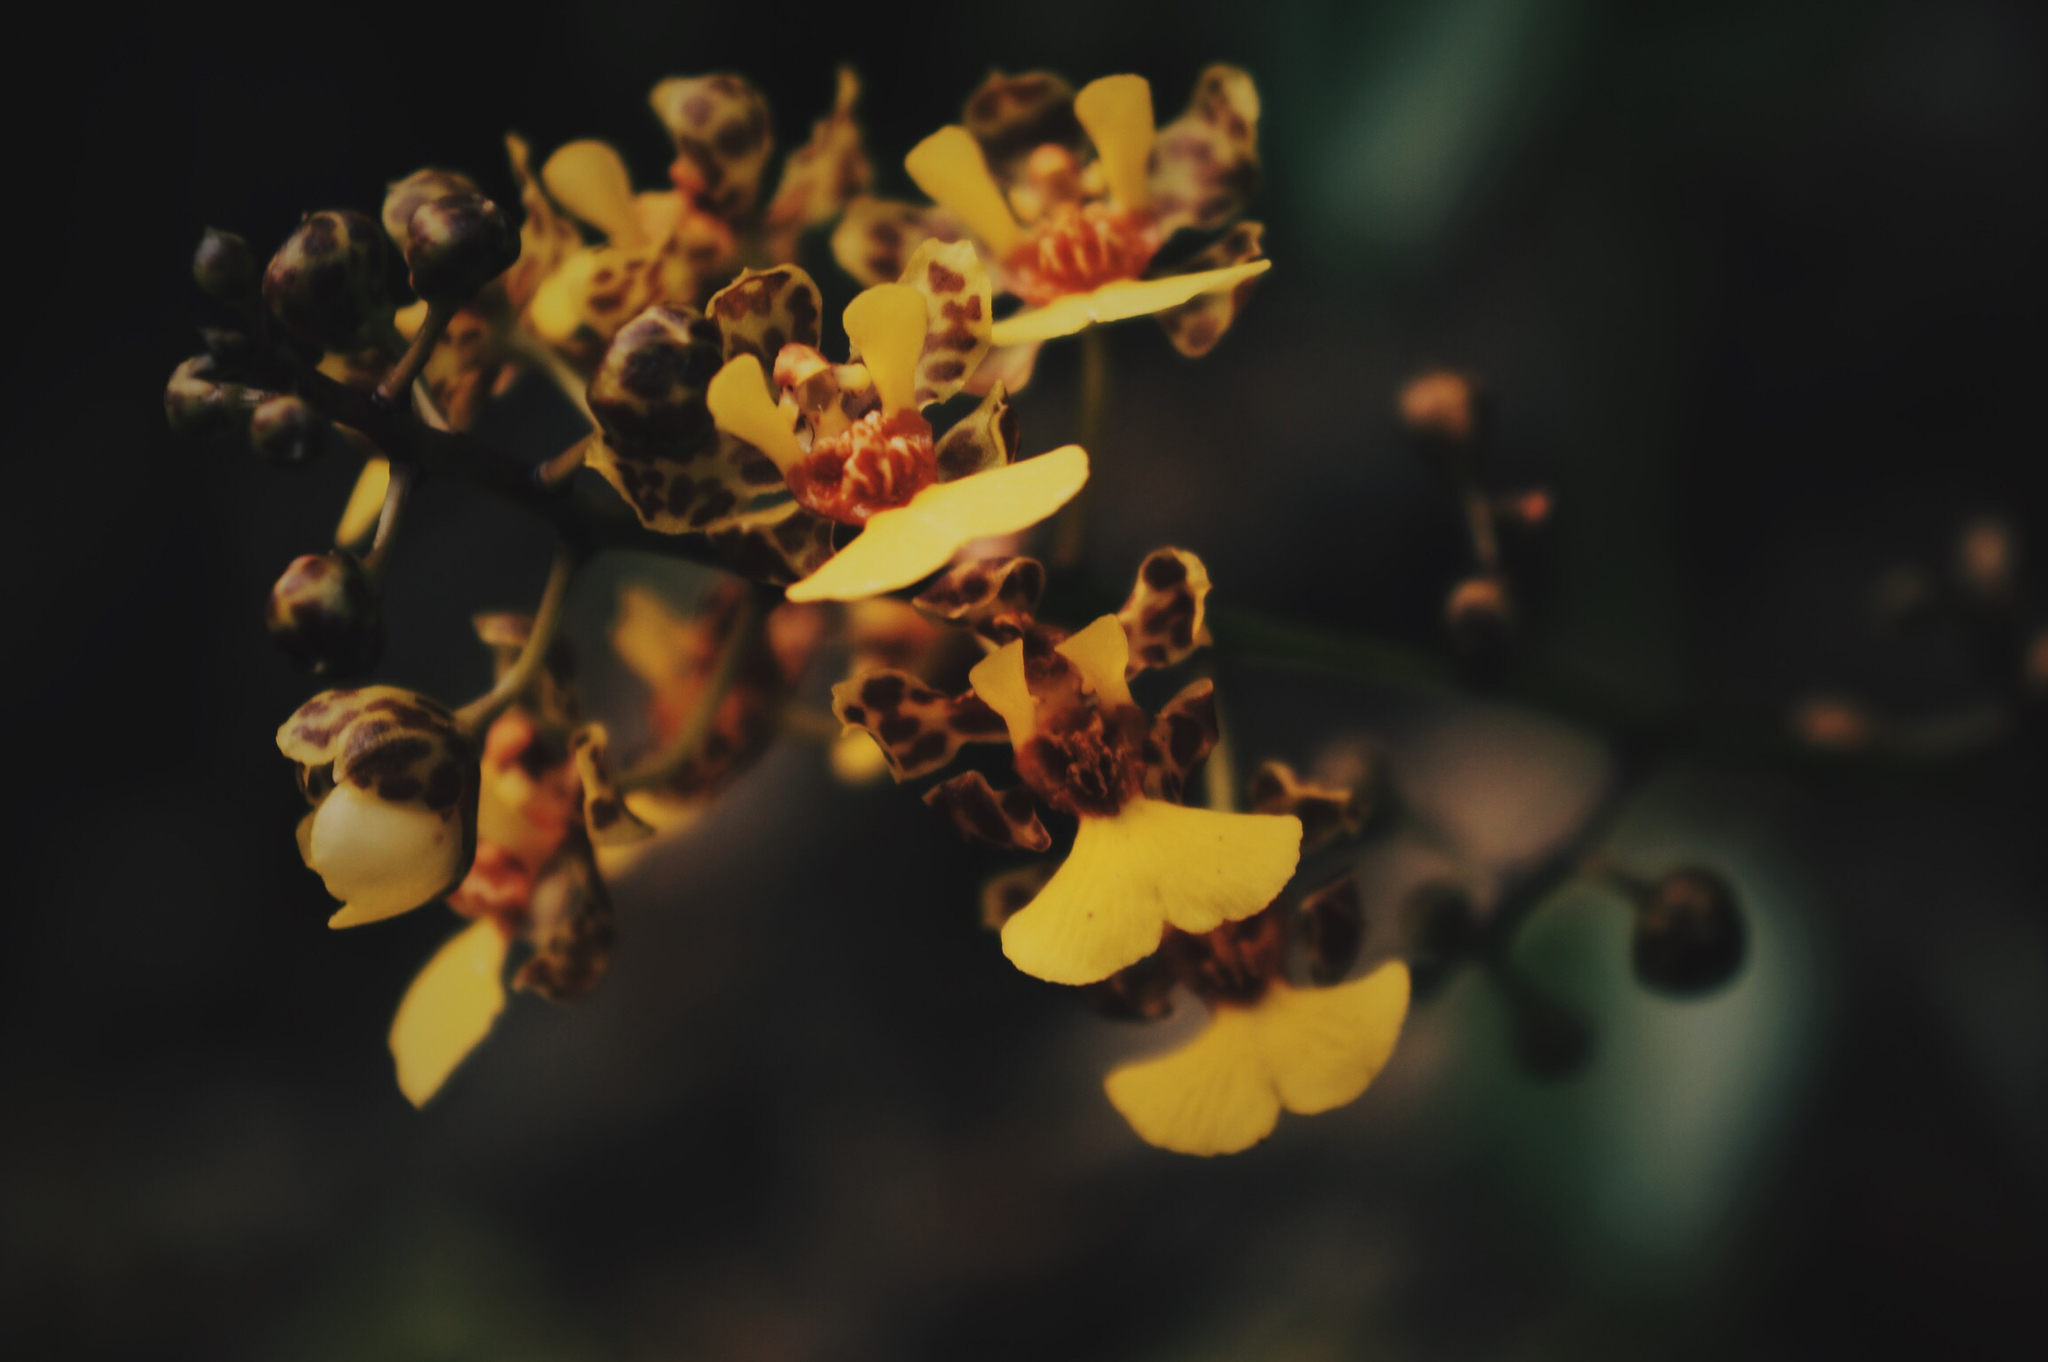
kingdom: Plantae
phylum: Tracheophyta
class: Liliopsida
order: Asparagales
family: Orchidaceae
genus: Trichocentrum
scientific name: Trichocentrum ascendens
